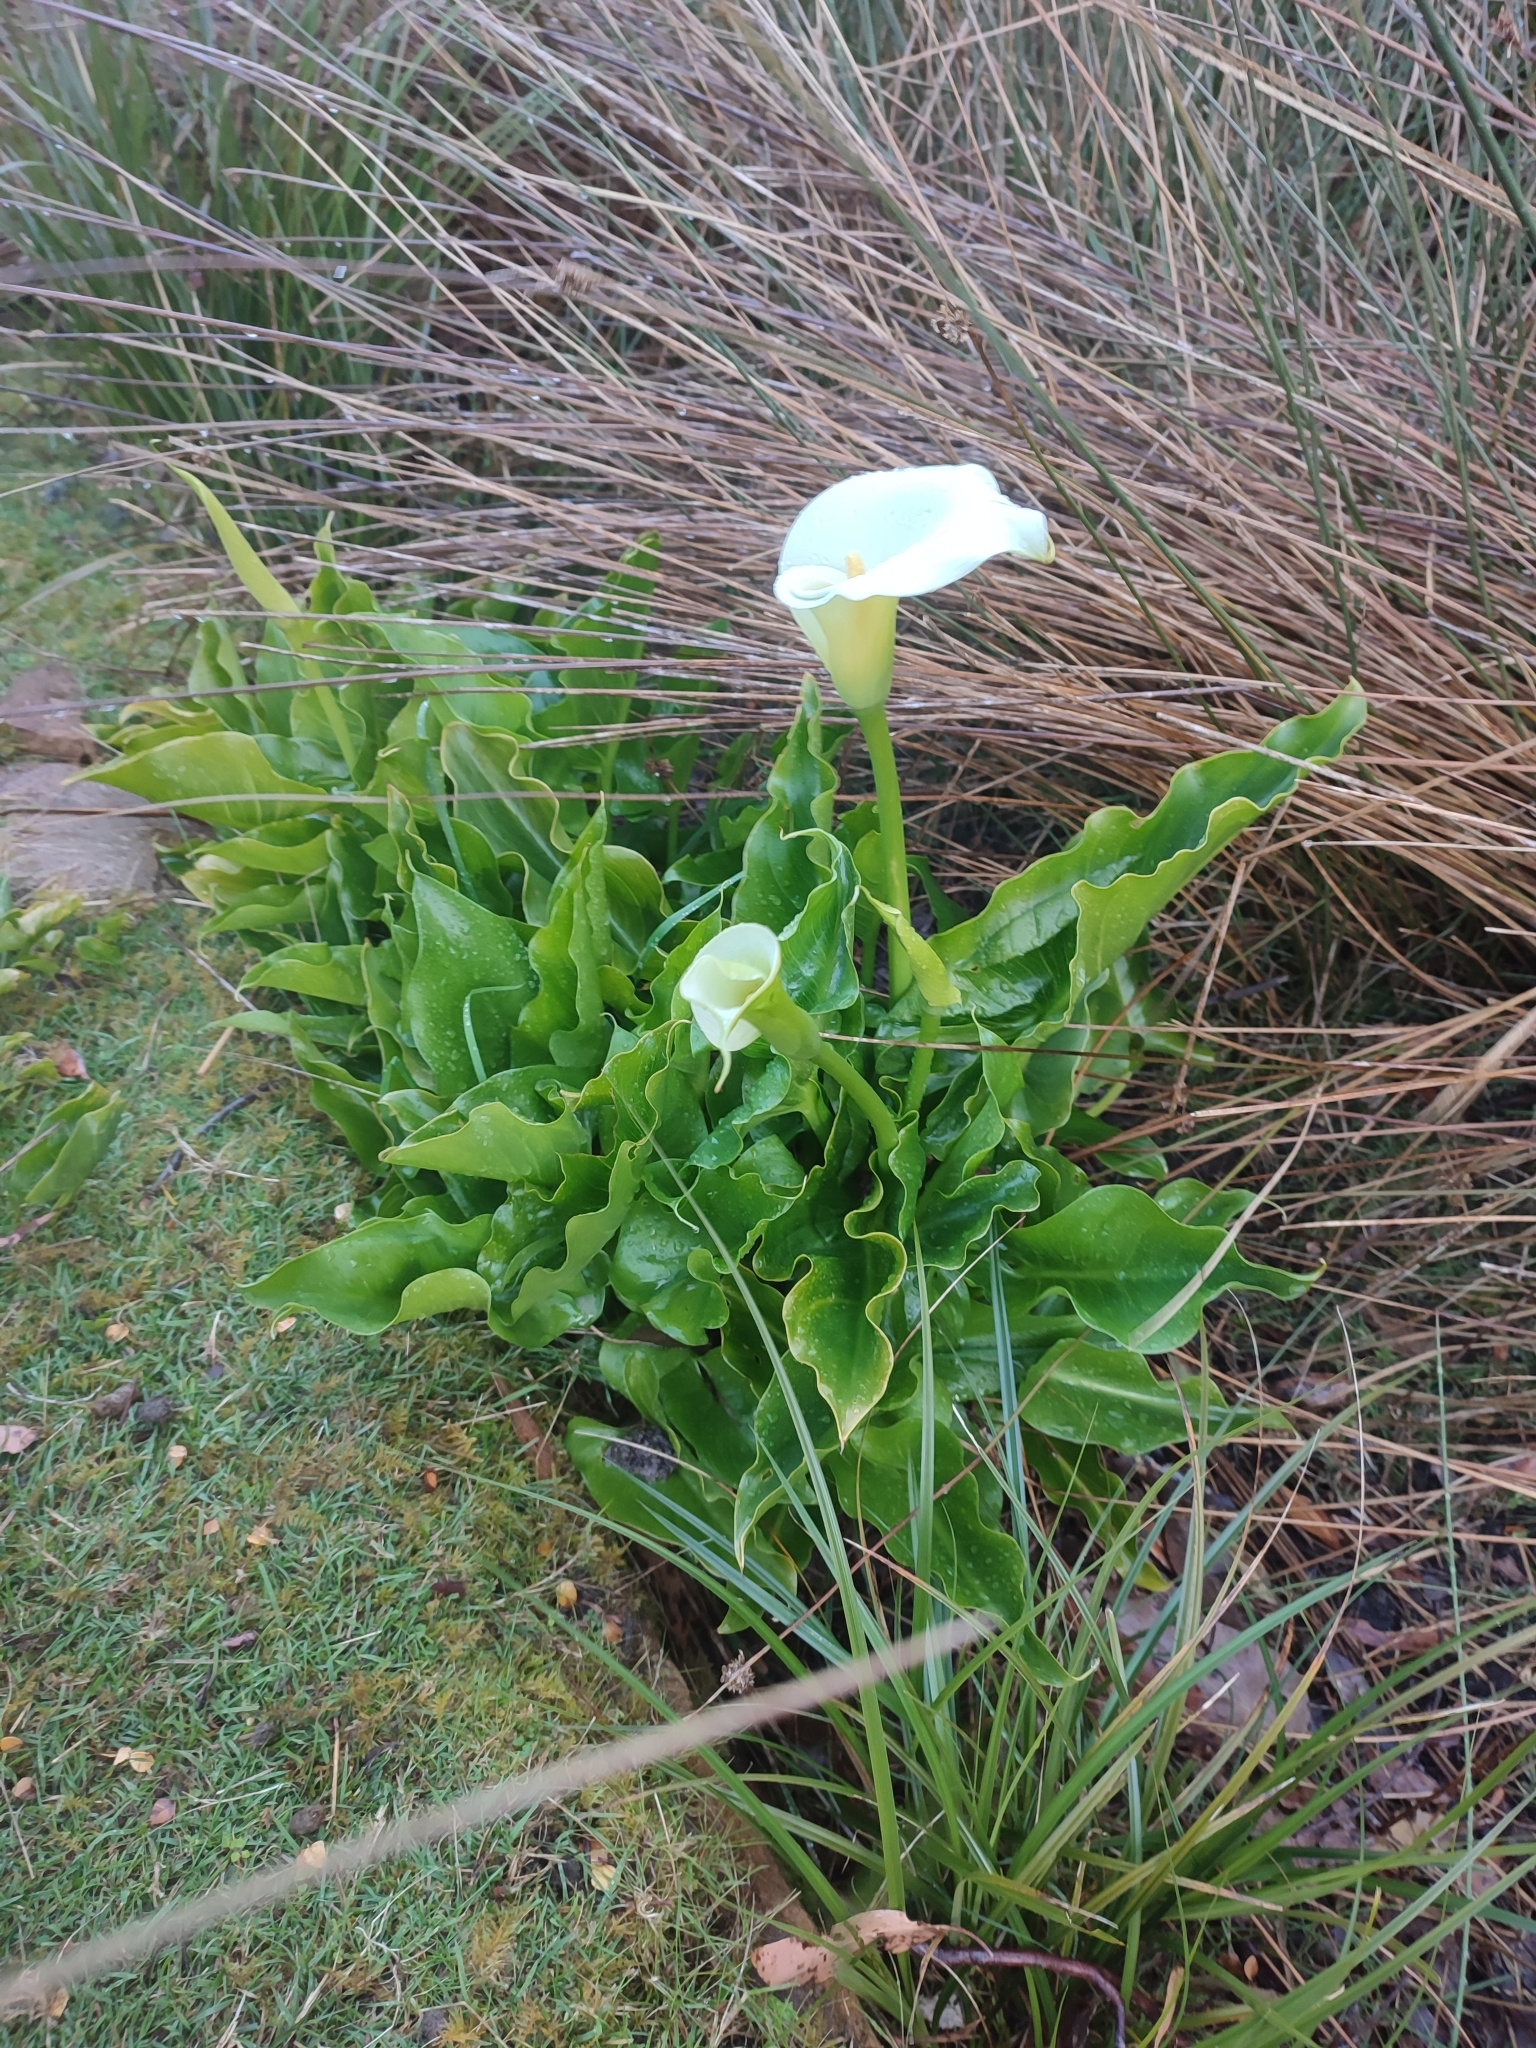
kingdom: Plantae
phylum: Tracheophyta
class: Liliopsida
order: Alismatales
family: Araceae
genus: Zantedeschia
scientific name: Zantedeschia aethiopica
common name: Altar-lily
